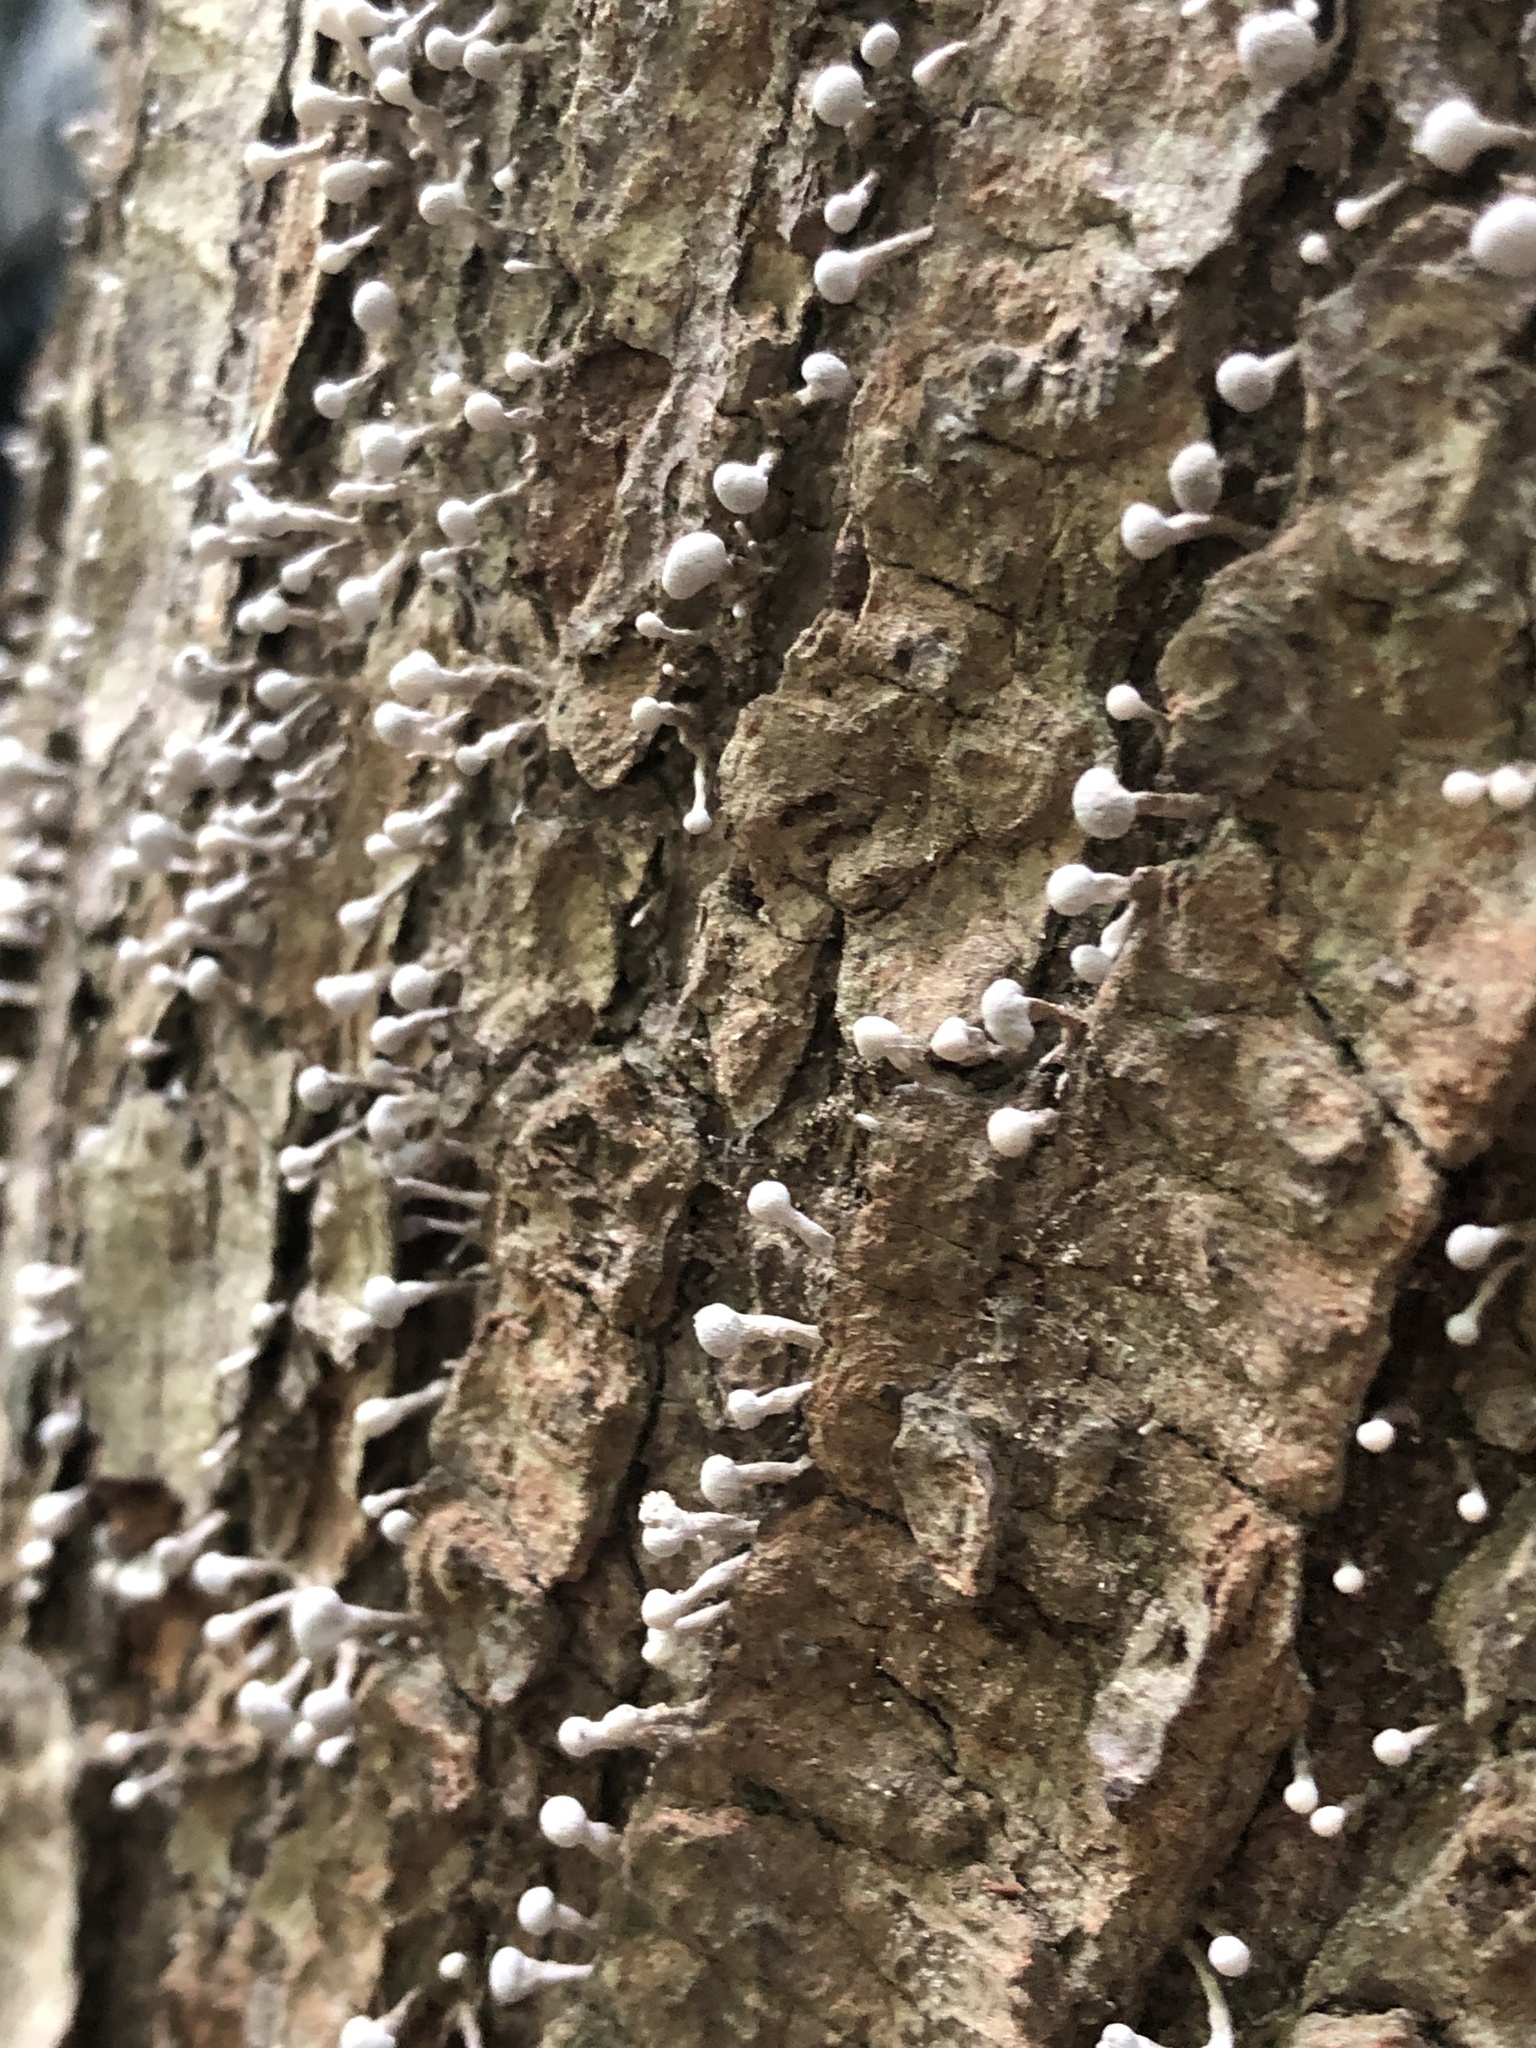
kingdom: Fungi
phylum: Basidiomycota
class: Atractiellomycetes
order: Atractiellales
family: Phleogenaceae
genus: Phleogena
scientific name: Phleogena faginea
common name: Fenugreek stalkball
